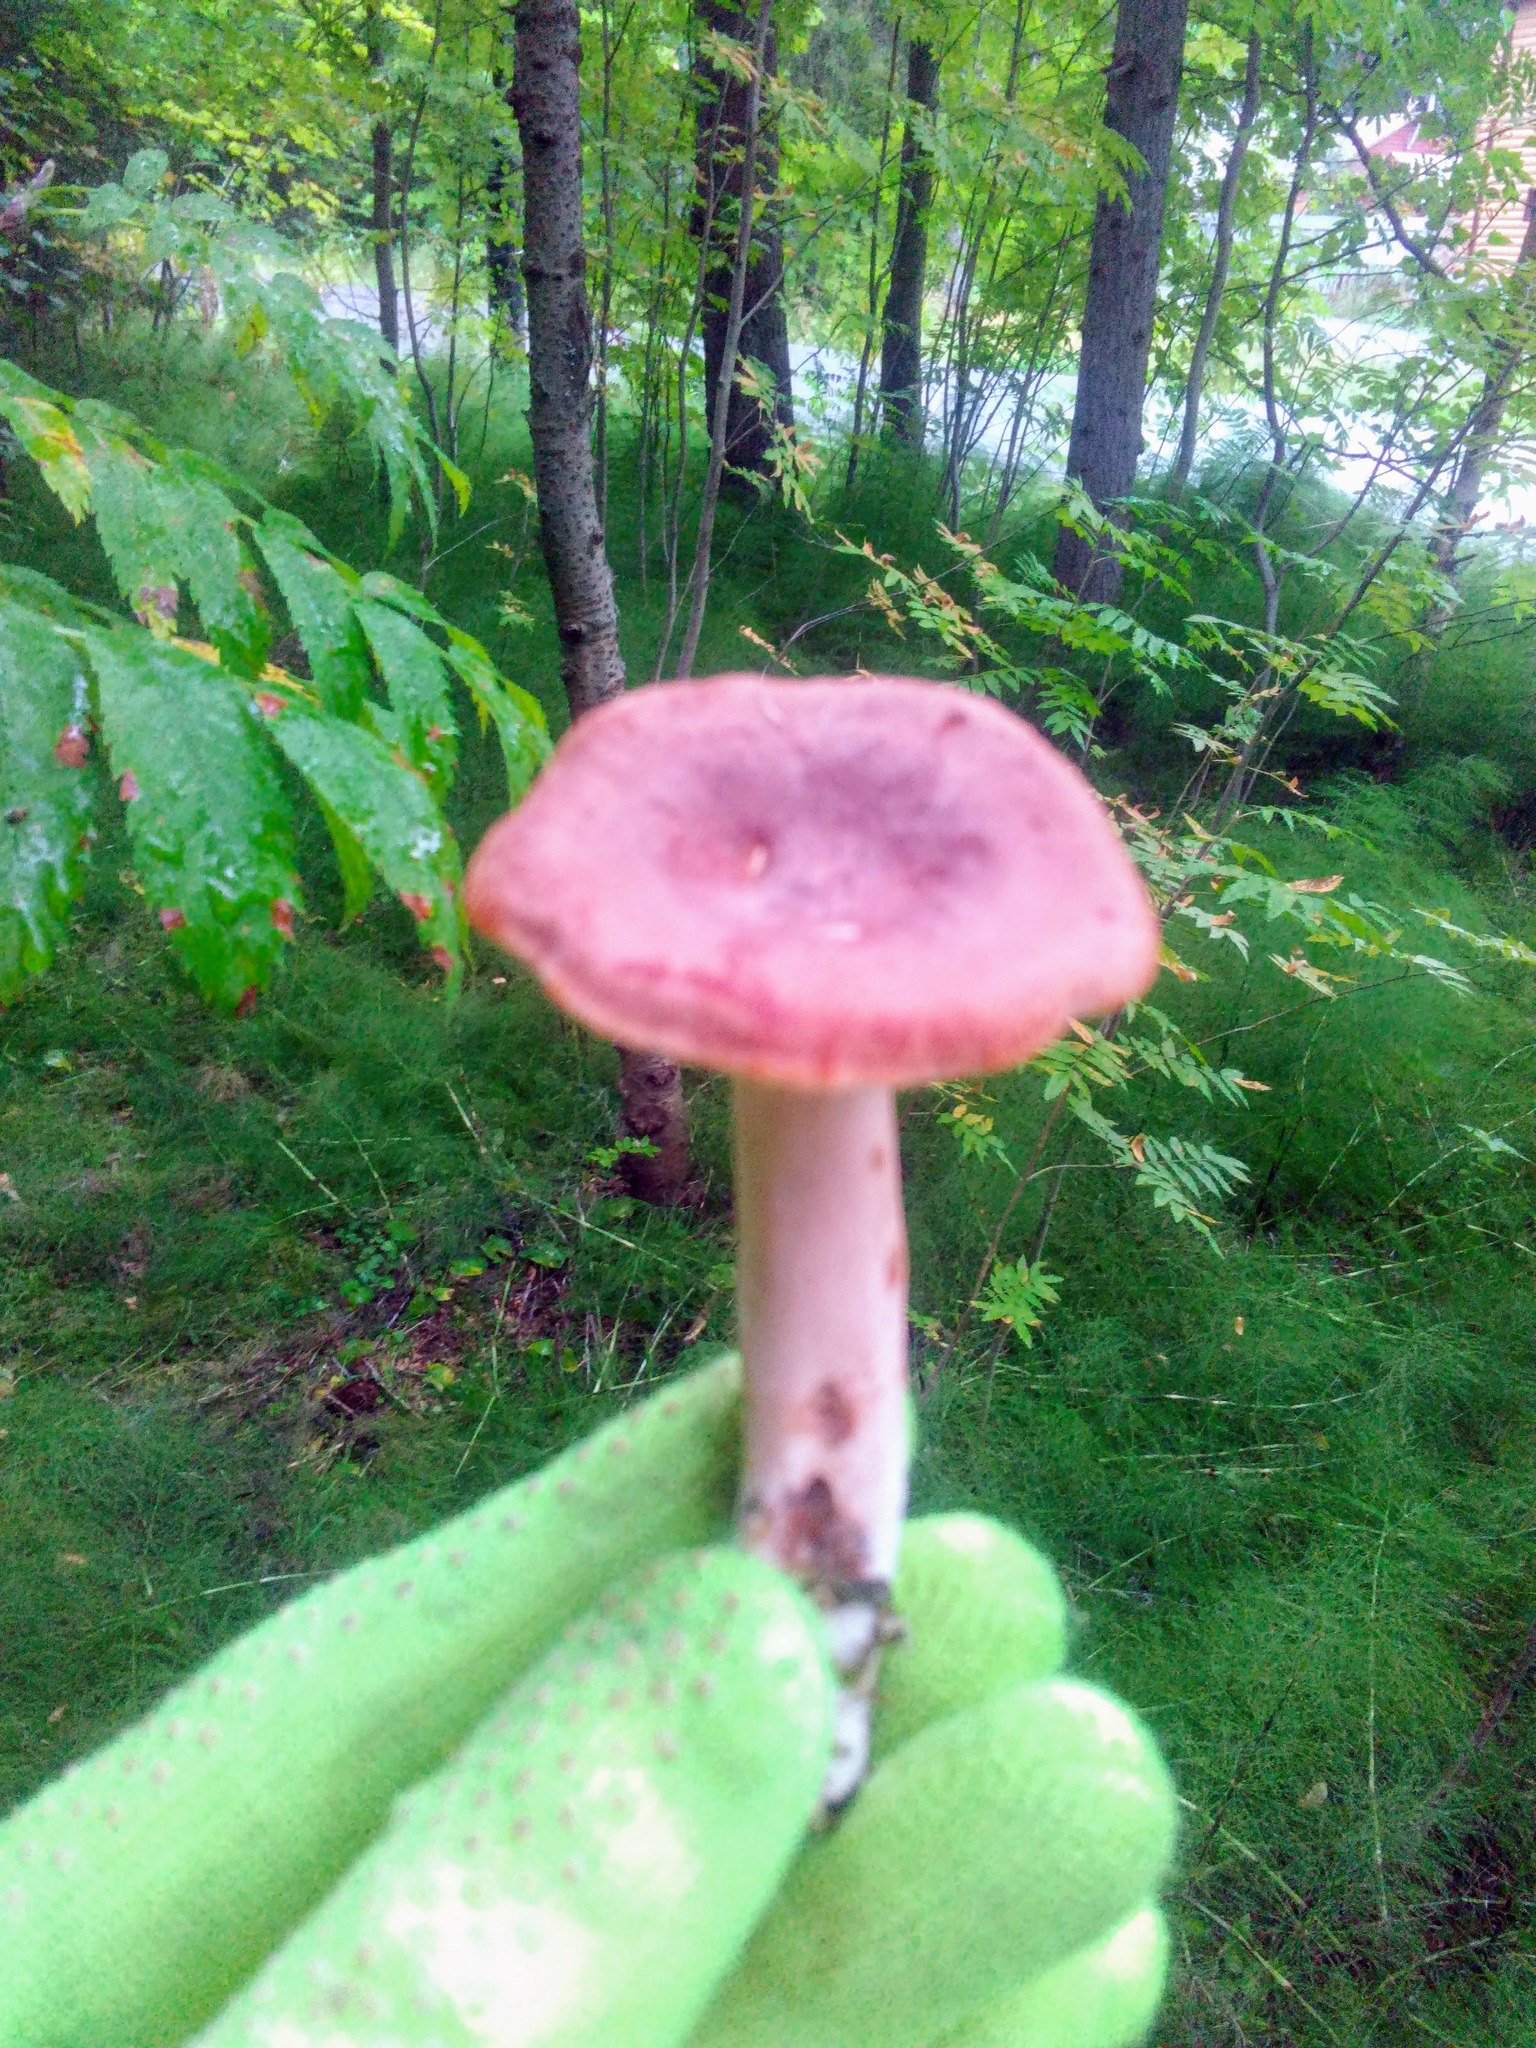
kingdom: Fungi
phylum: Basidiomycota
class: Agaricomycetes
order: Russulales
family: Russulaceae
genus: Lactarius
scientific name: Lactarius rufus
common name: Rufous milk-cap
